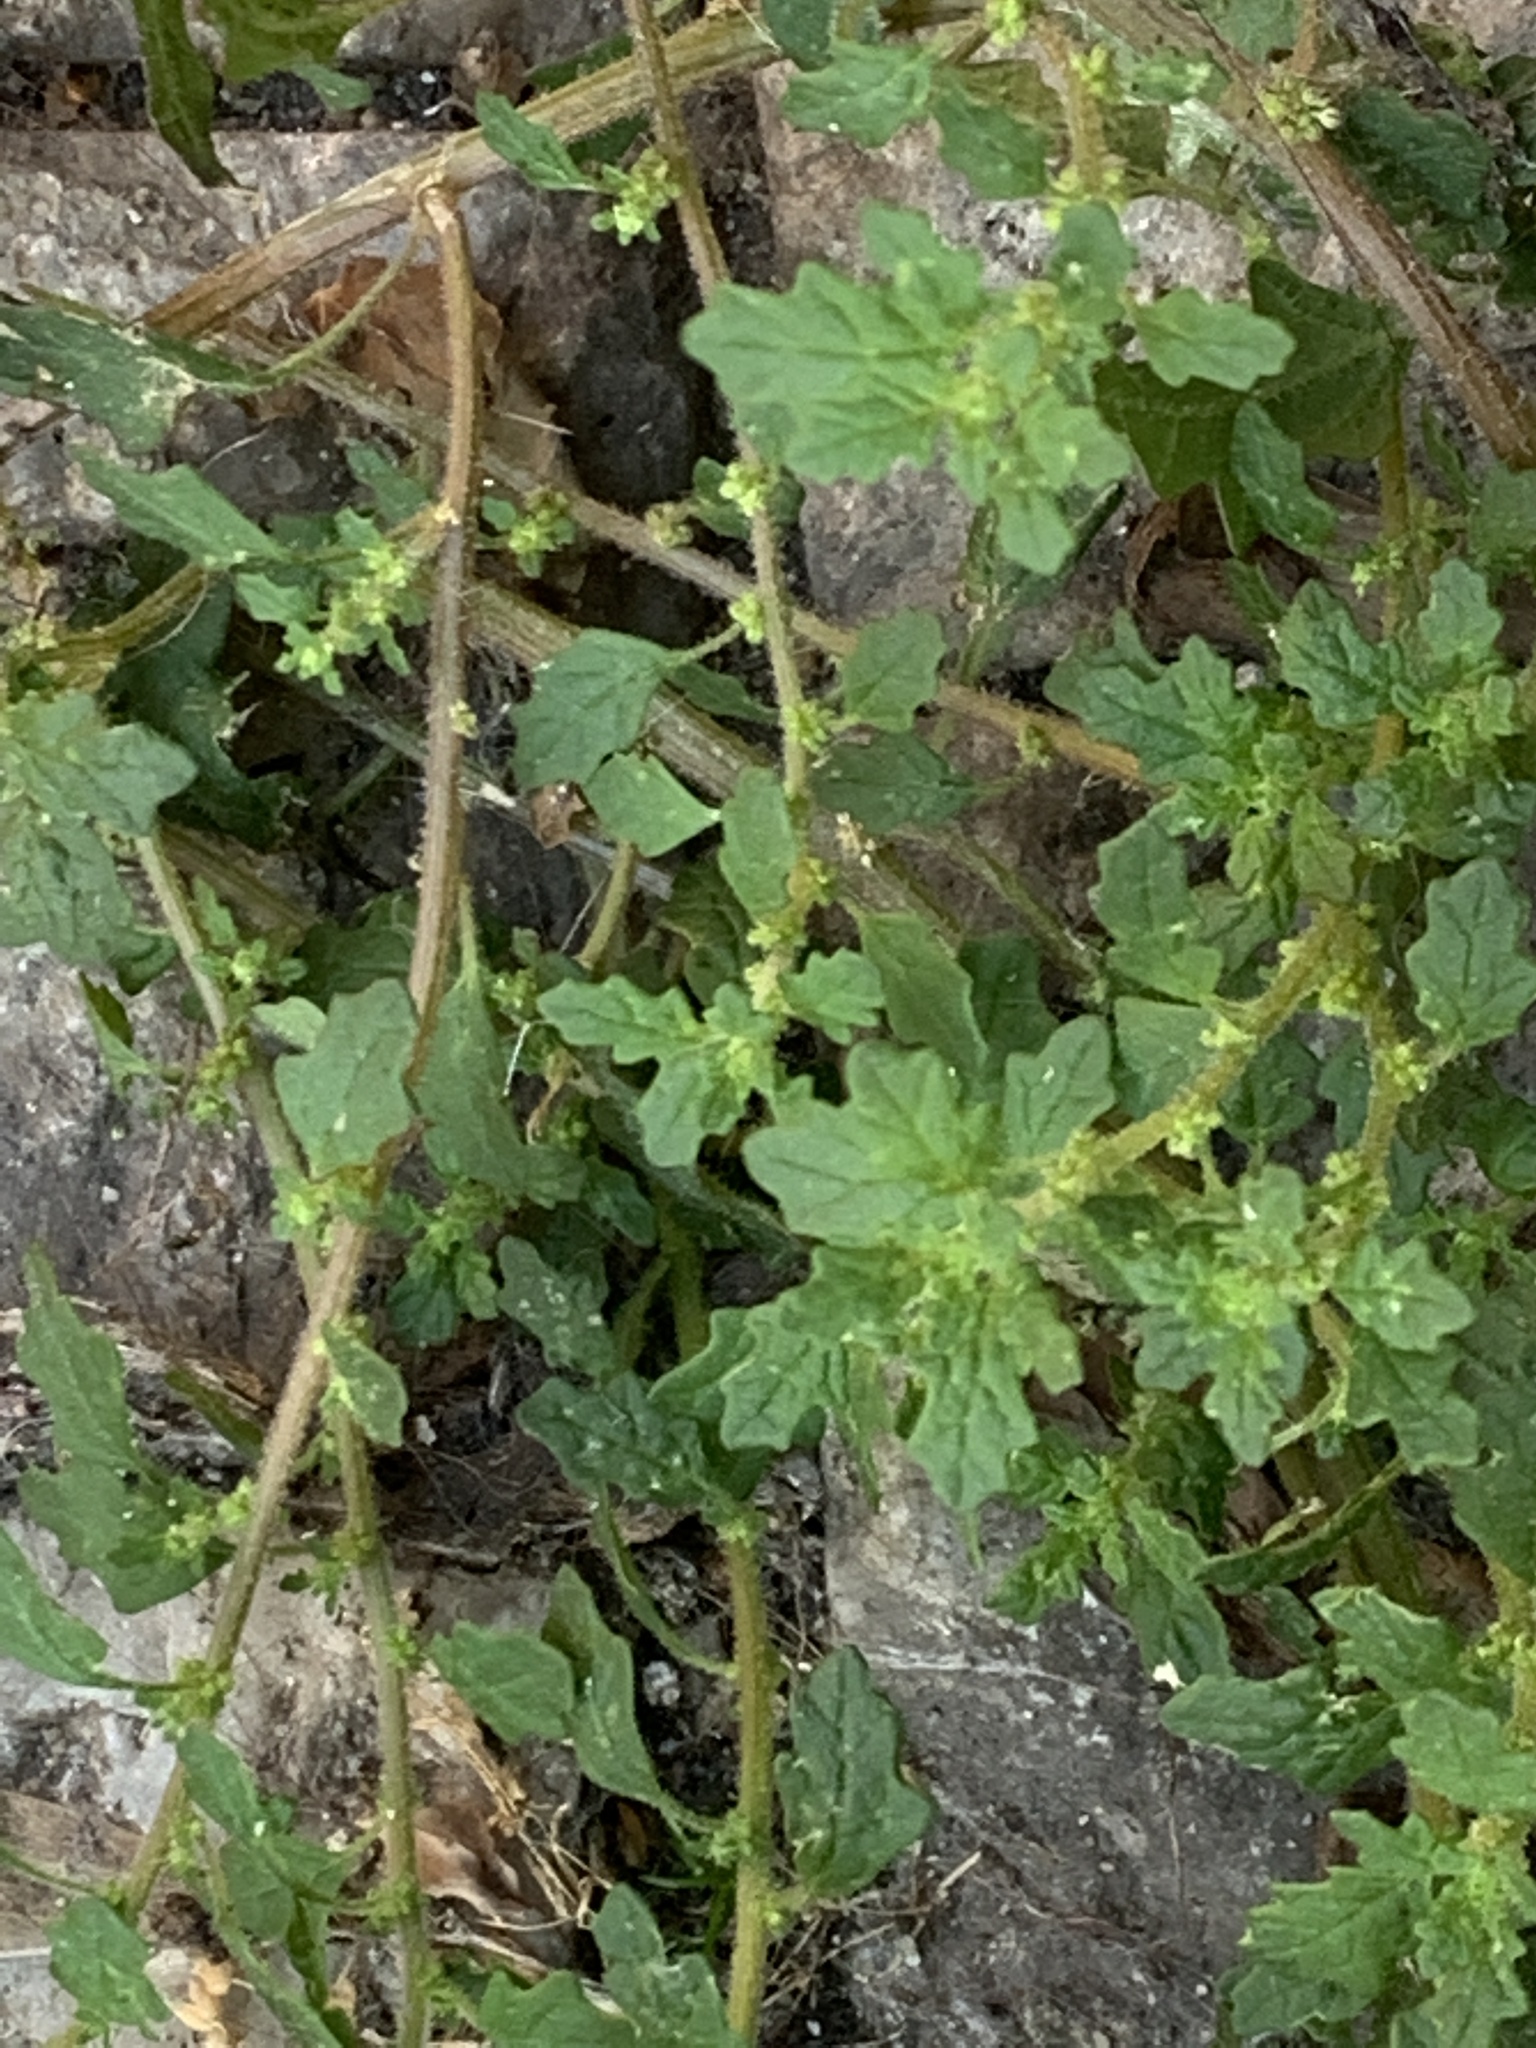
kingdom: Plantae
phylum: Tracheophyta
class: Magnoliopsida
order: Caryophyllales
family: Amaranthaceae
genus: Dysphania
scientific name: Dysphania pumilio
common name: Clammy goosefoot
